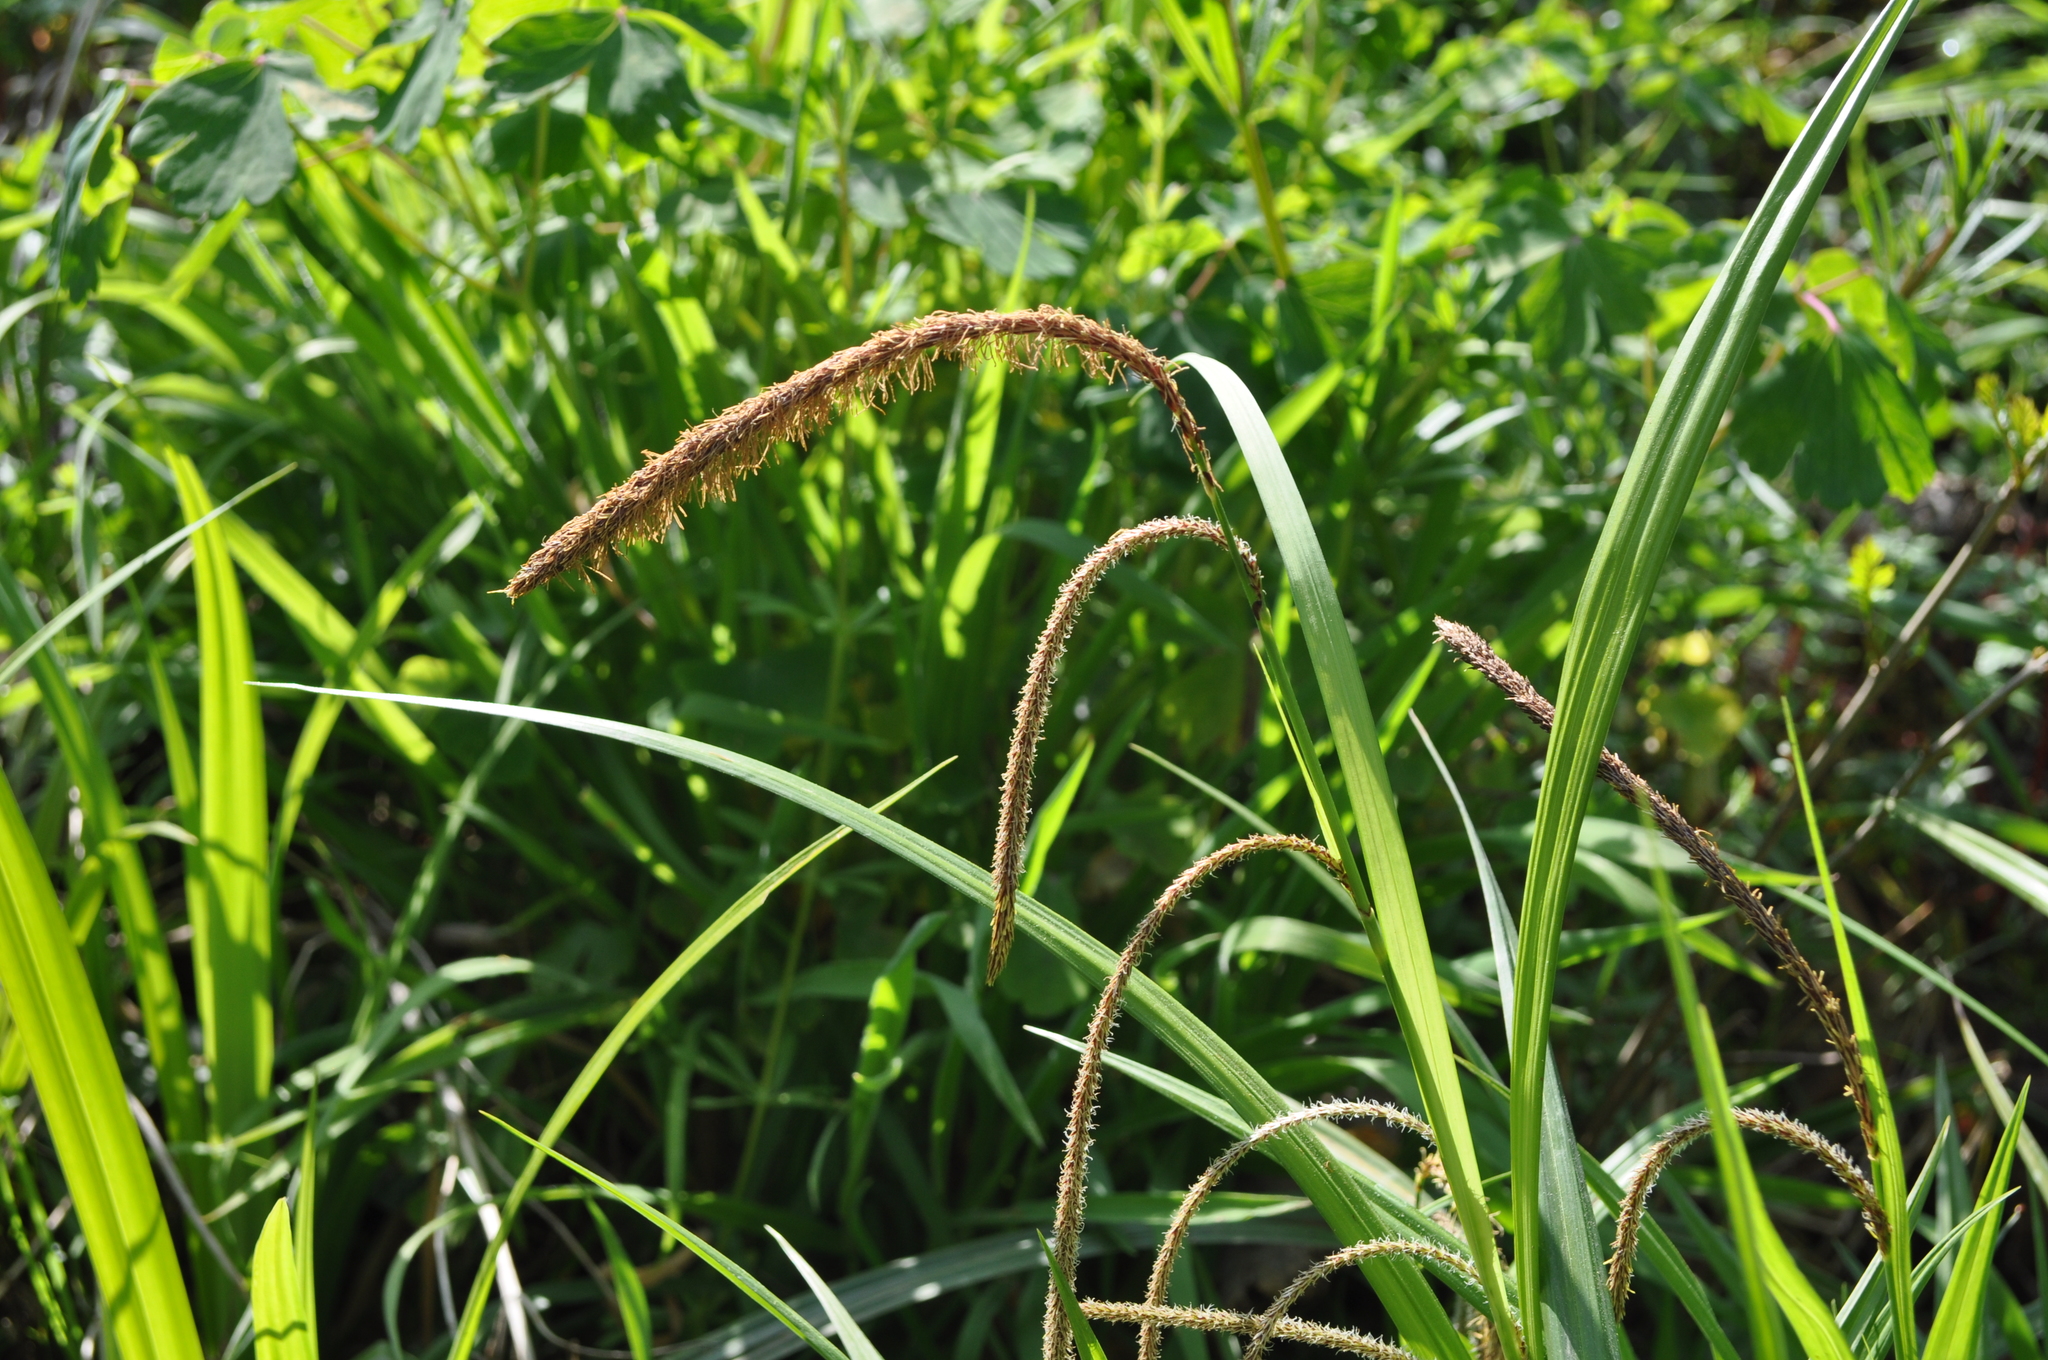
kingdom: Plantae
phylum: Tracheophyta
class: Liliopsida
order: Poales
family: Cyperaceae
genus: Carex
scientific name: Carex pendula
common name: Pendulous sedge
